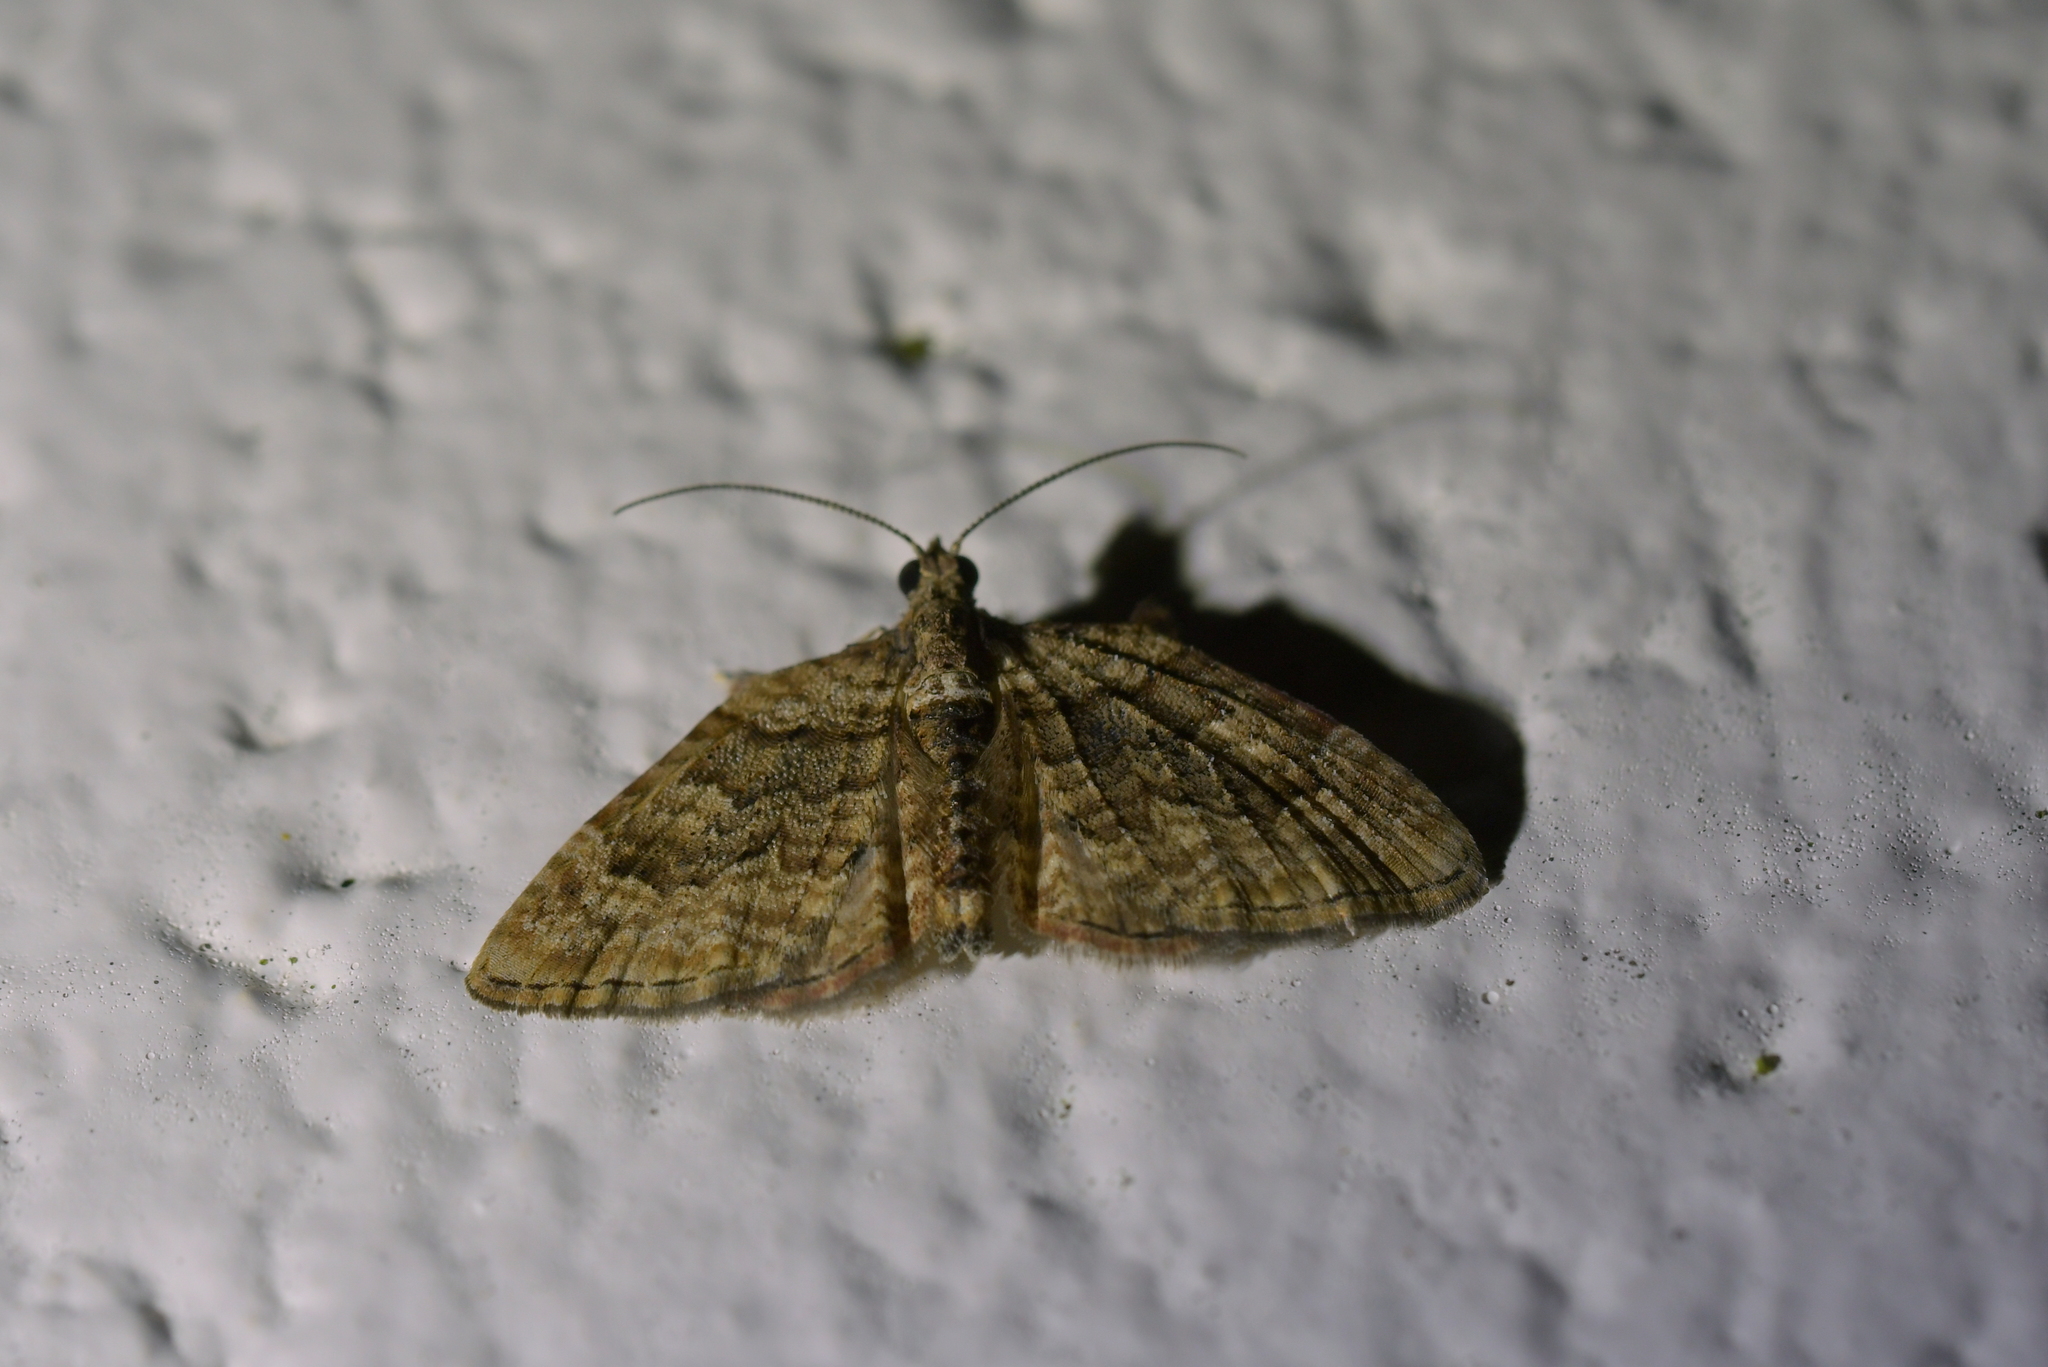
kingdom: Animalia
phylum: Arthropoda
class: Insecta
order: Lepidoptera
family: Geometridae
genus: Phrissogonus
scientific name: Phrissogonus laticostata
